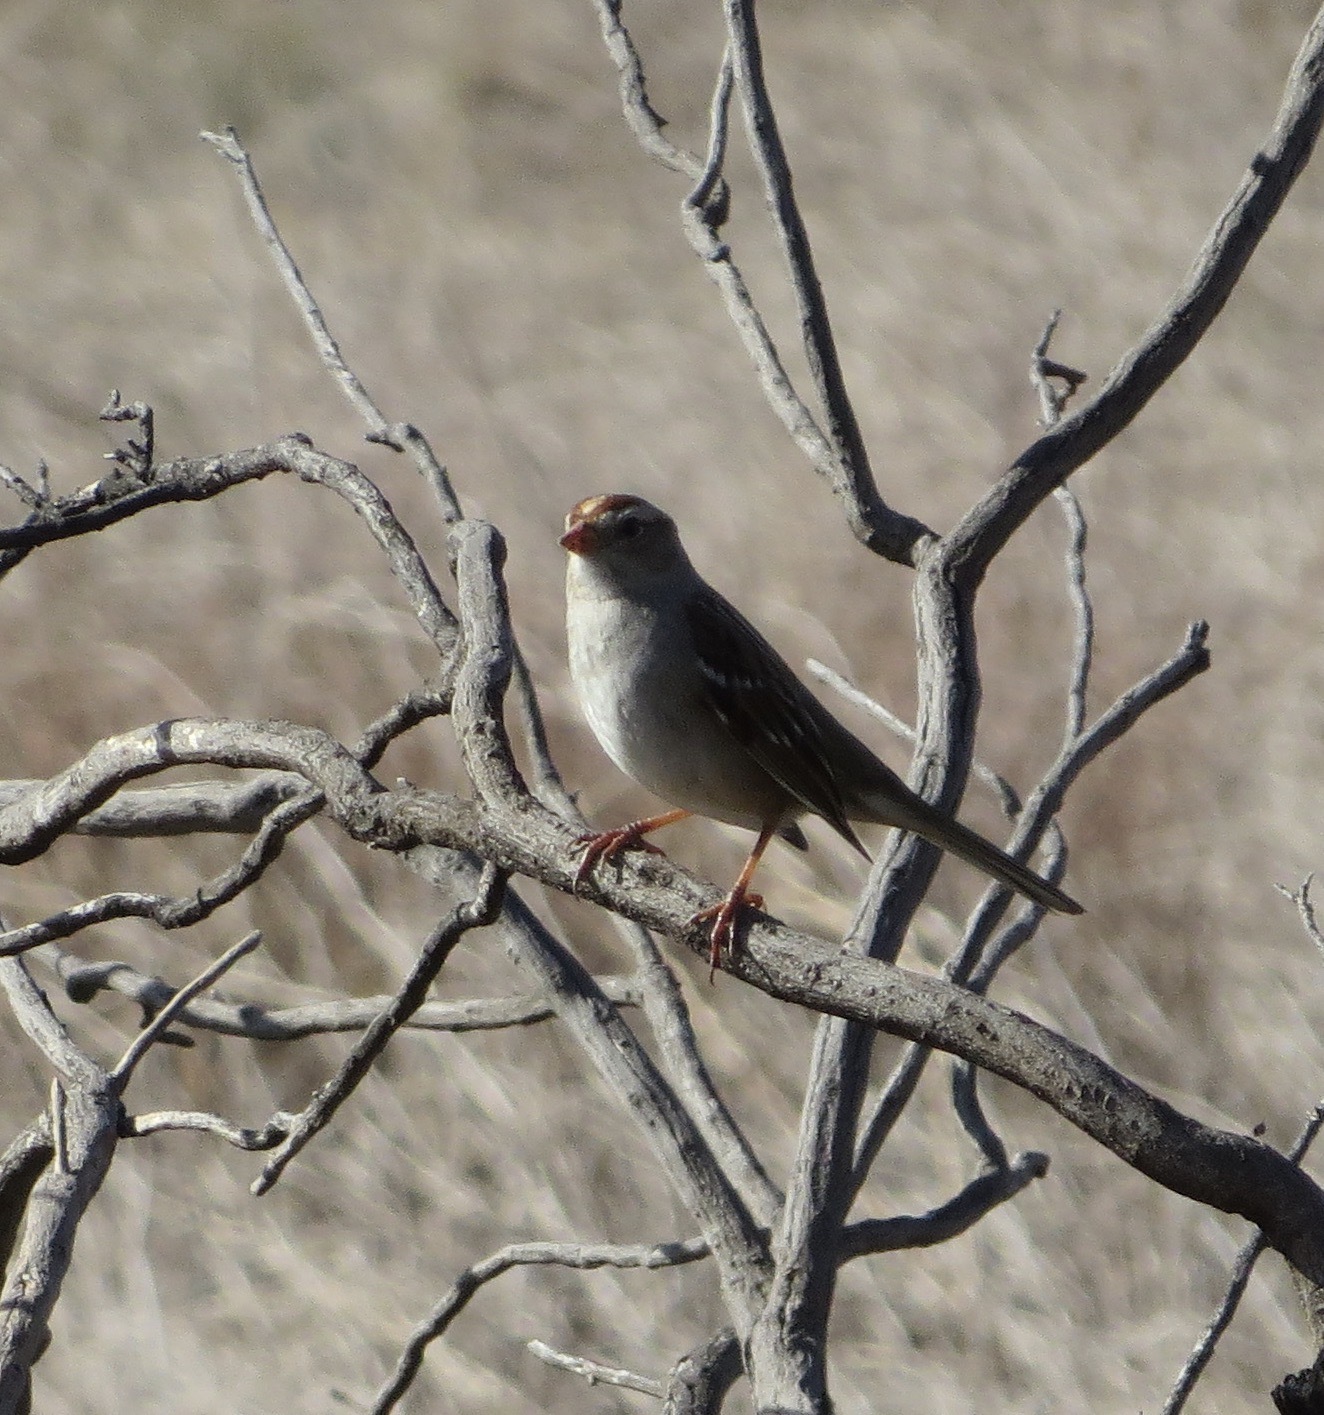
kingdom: Animalia
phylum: Chordata
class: Aves
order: Passeriformes
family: Passerellidae
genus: Zonotrichia
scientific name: Zonotrichia leucophrys
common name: White-crowned sparrow
